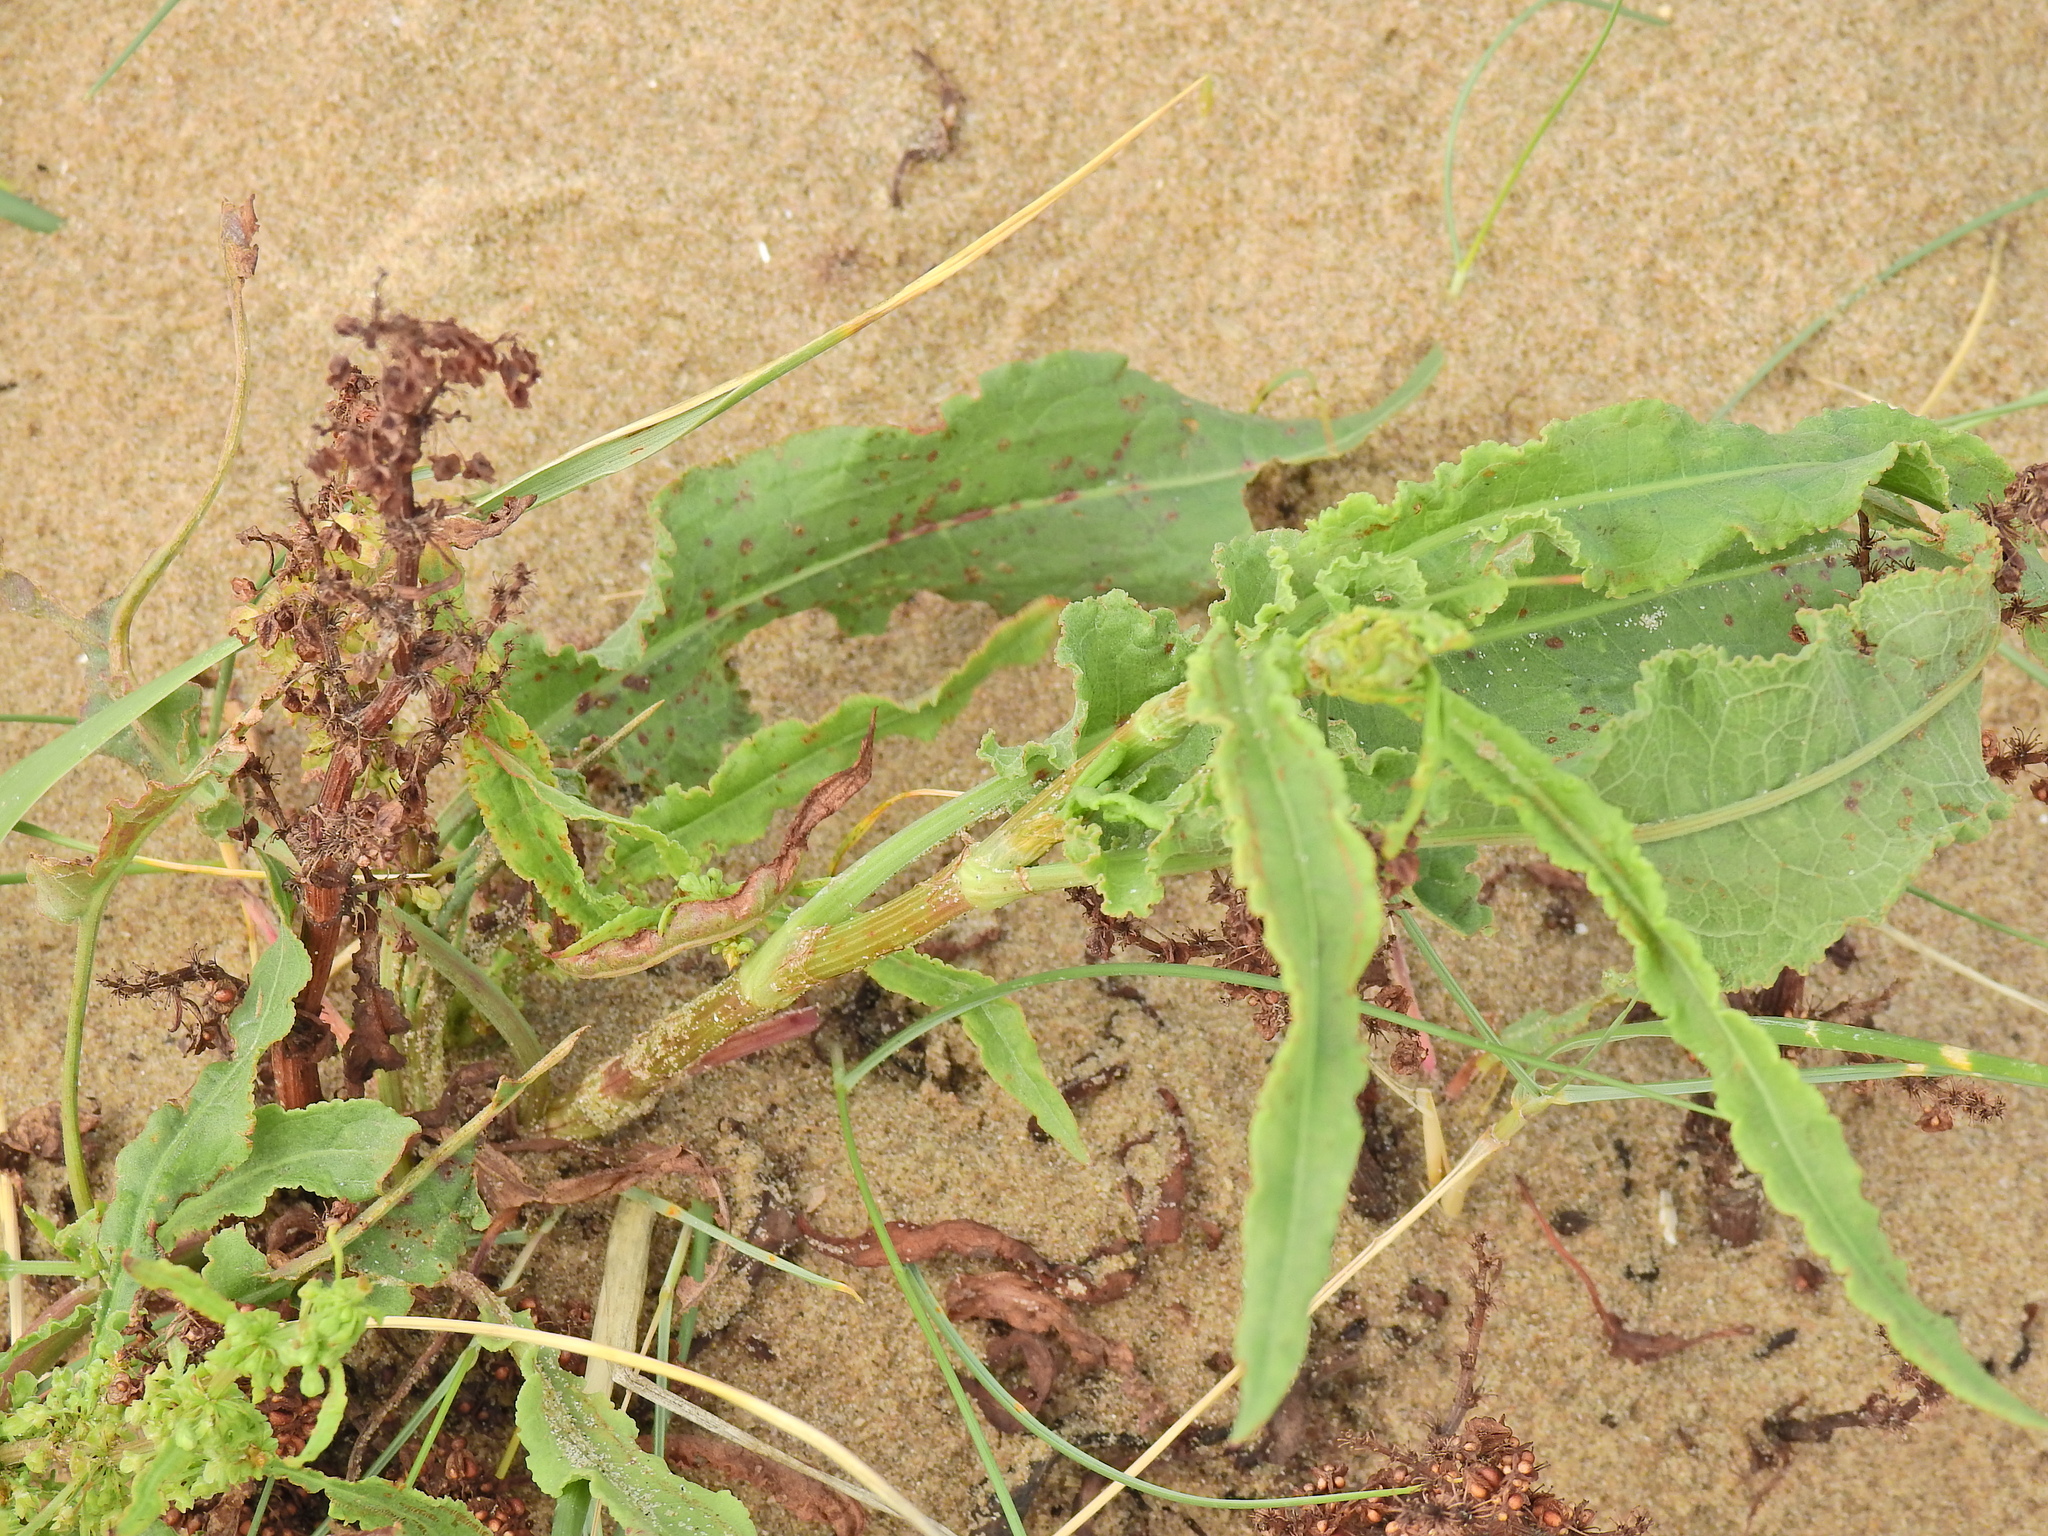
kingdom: Plantae
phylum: Tracheophyta
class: Magnoliopsida
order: Caryophyllales
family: Polygonaceae
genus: Rumex
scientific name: Rumex crispus
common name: Curled dock
